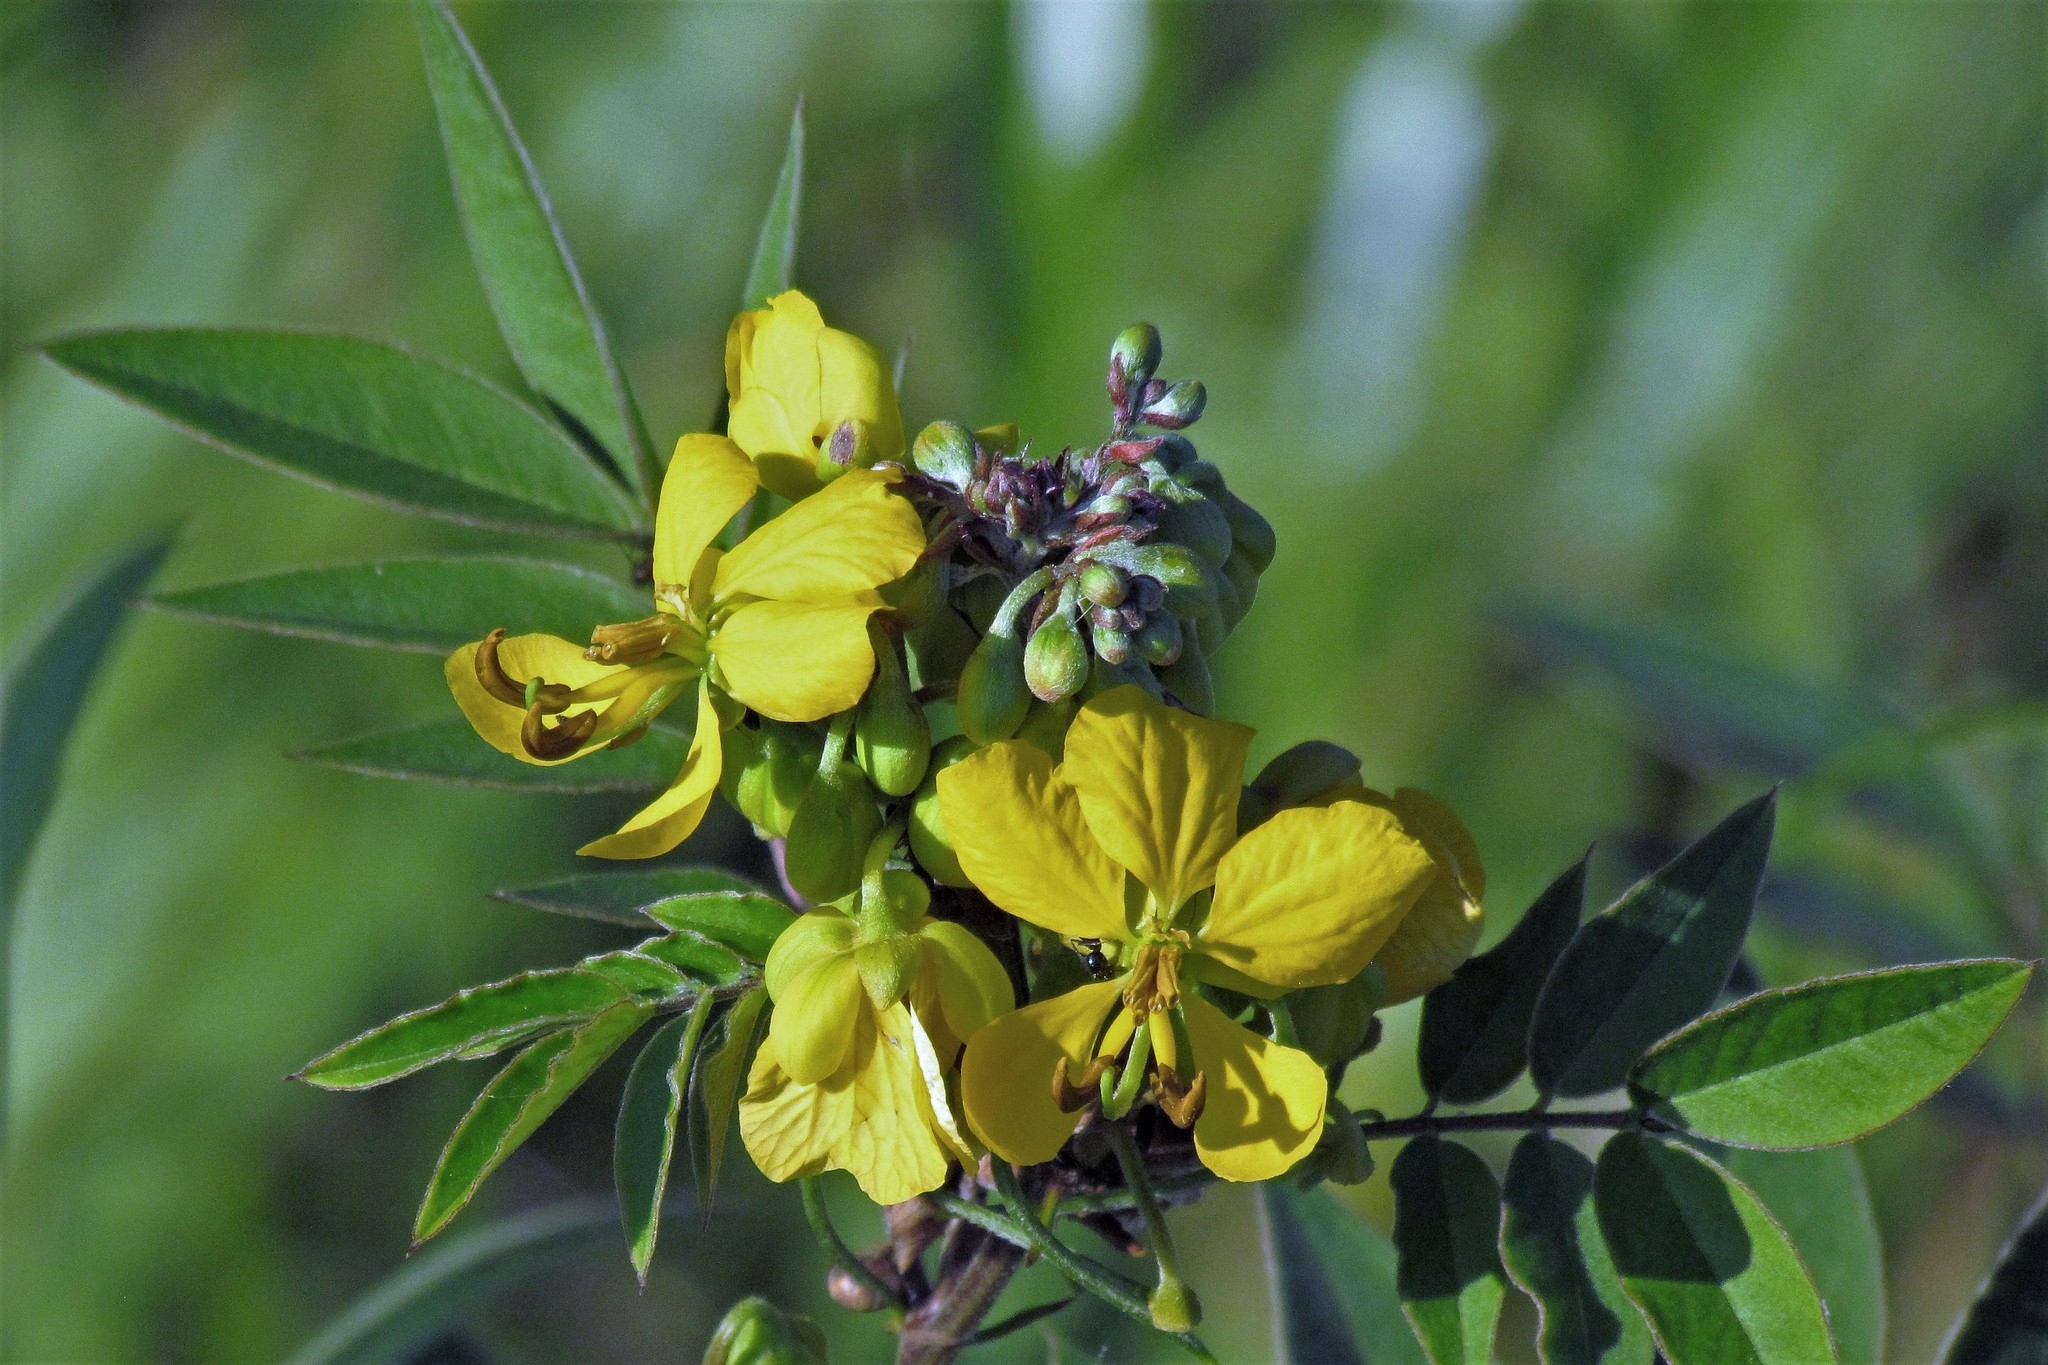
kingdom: Plantae
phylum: Tracheophyta
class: Magnoliopsida
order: Fabales
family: Fabaceae
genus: Senna
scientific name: Senna scabriuscula
